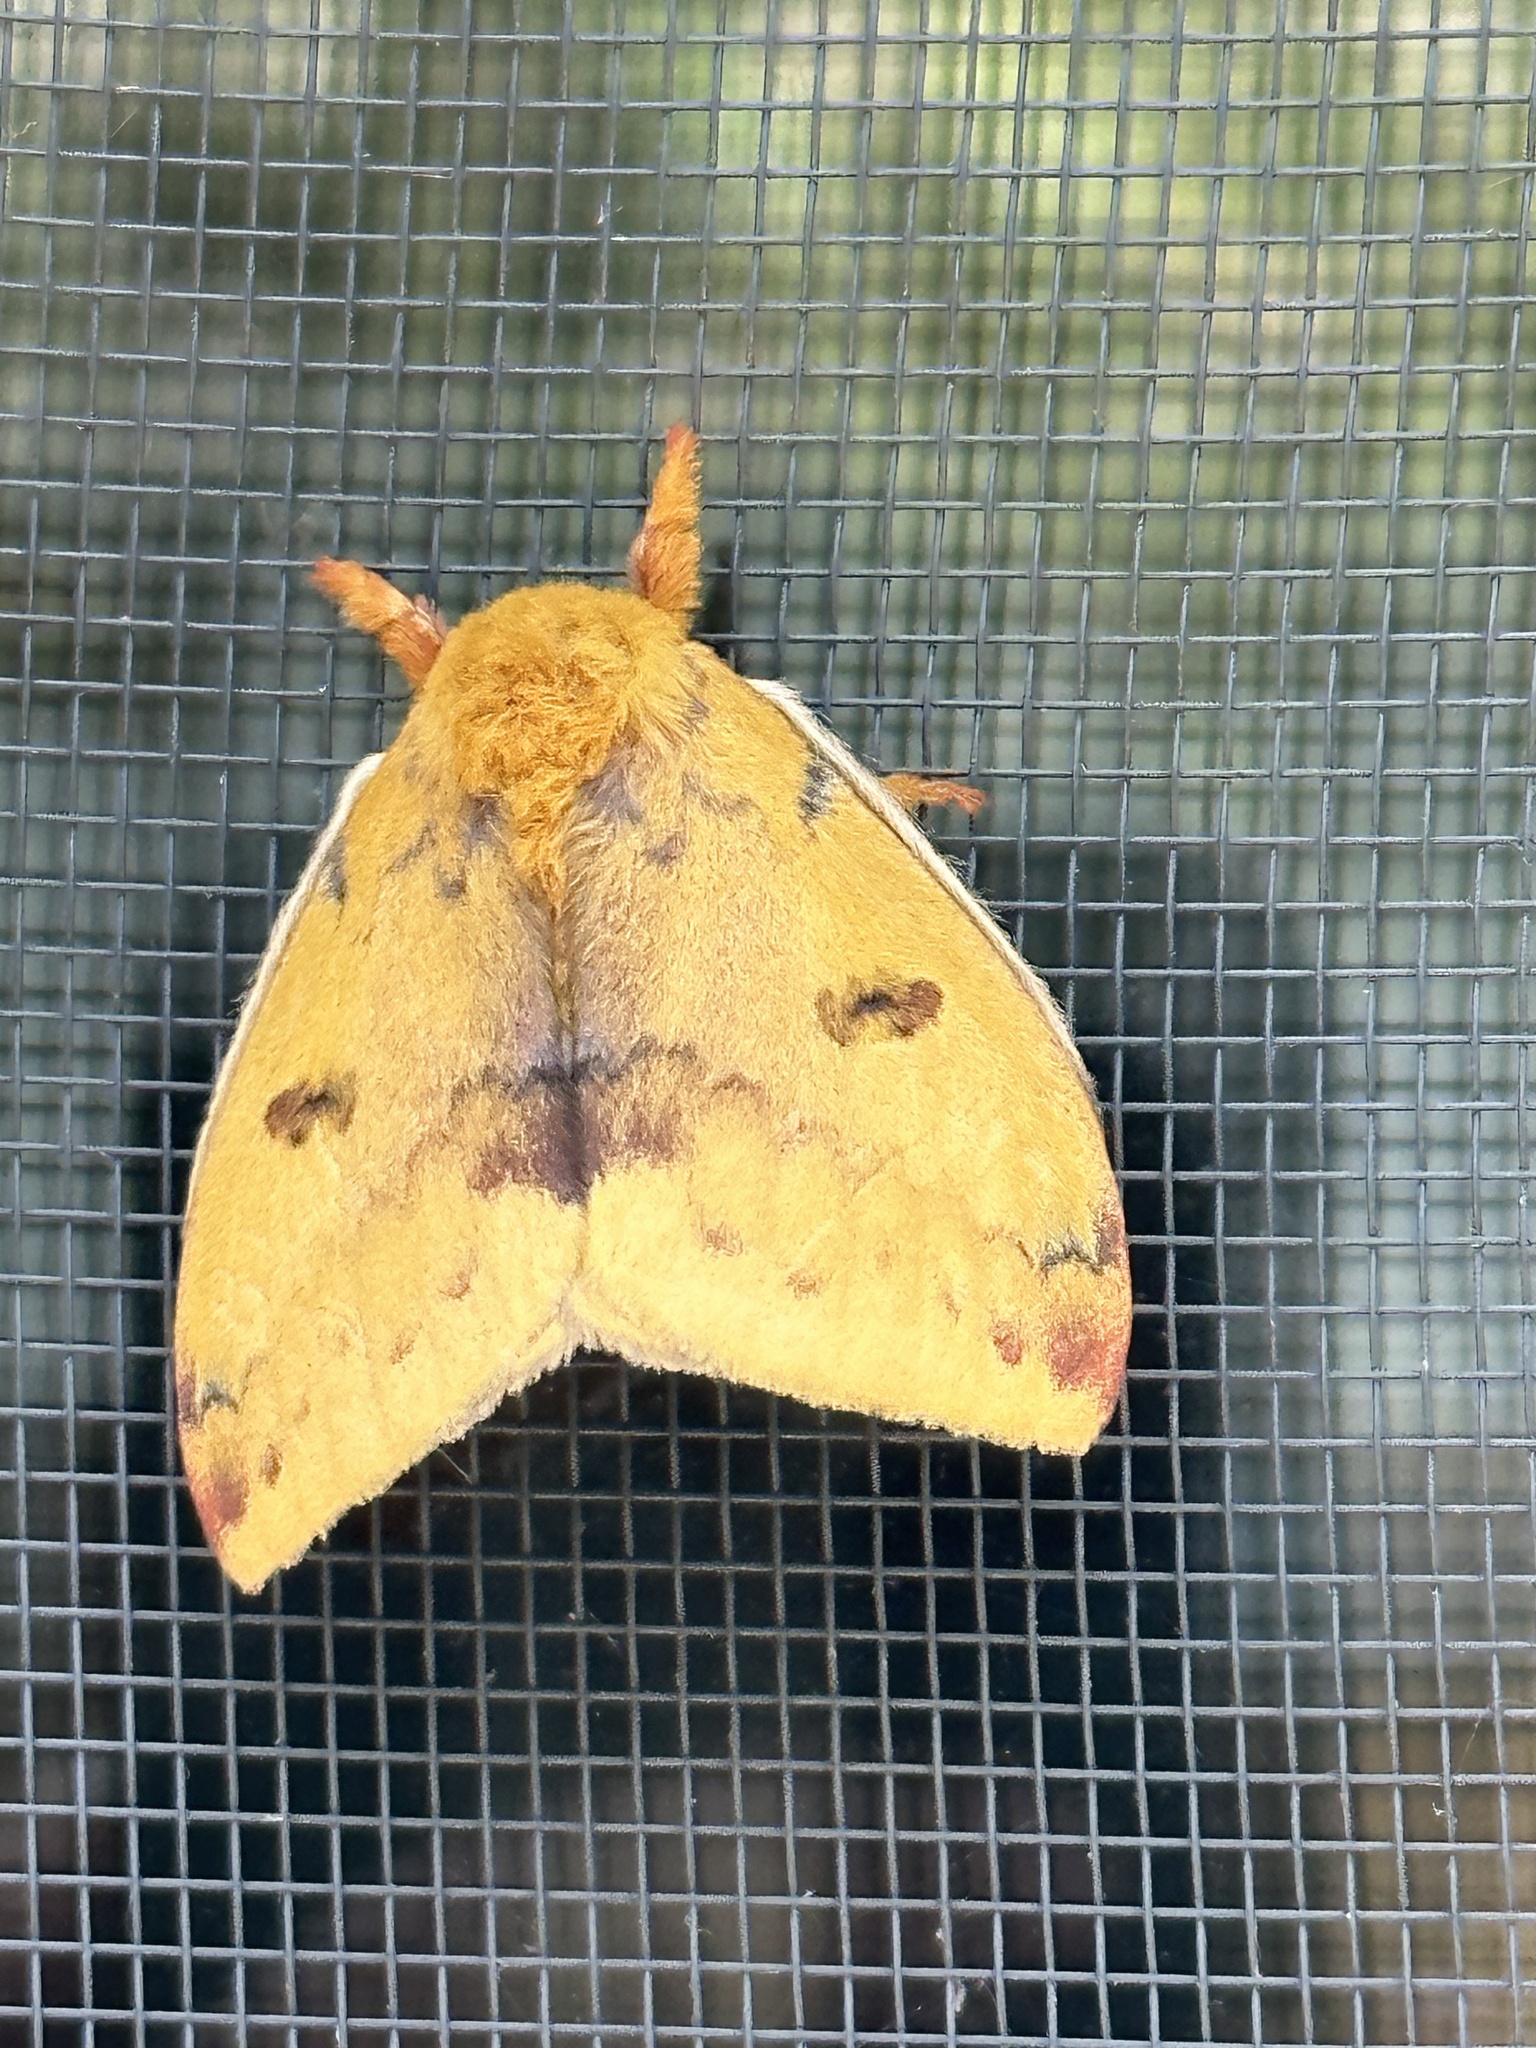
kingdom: Animalia
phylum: Arthropoda
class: Insecta
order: Lepidoptera
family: Saturniidae
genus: Automeris
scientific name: Automeris io
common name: Io moth
